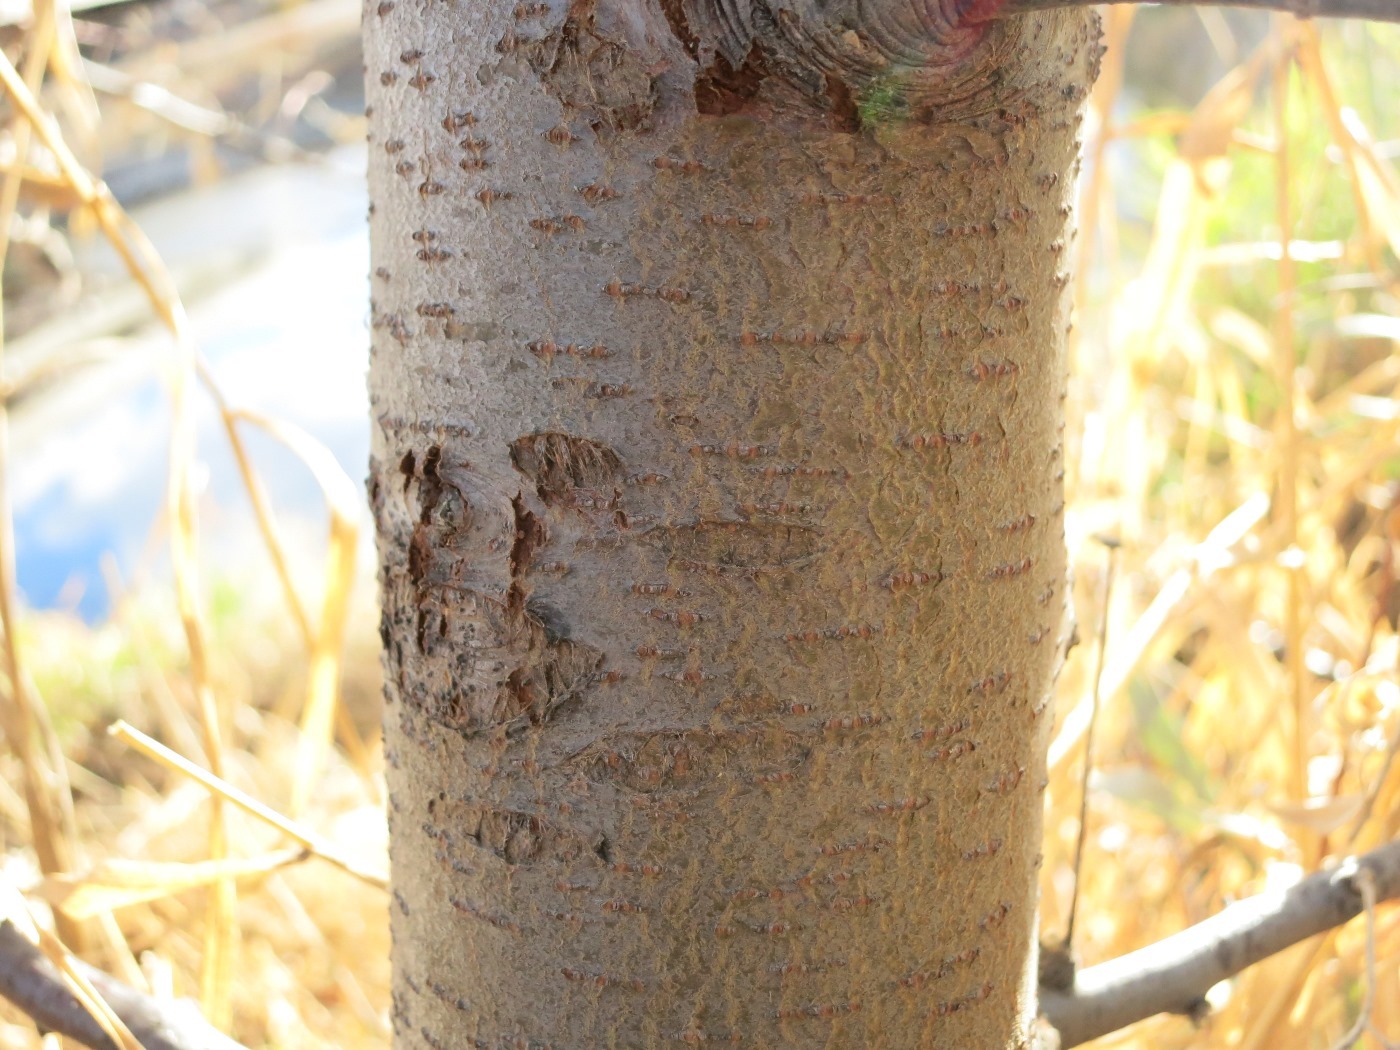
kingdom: Plantae
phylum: Tracheophyta
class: Magnoliopsida
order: Rosales
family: Elaeagnaceae
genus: Elaeagnus
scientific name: Elaeagnus angustifolia
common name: Russian olive
